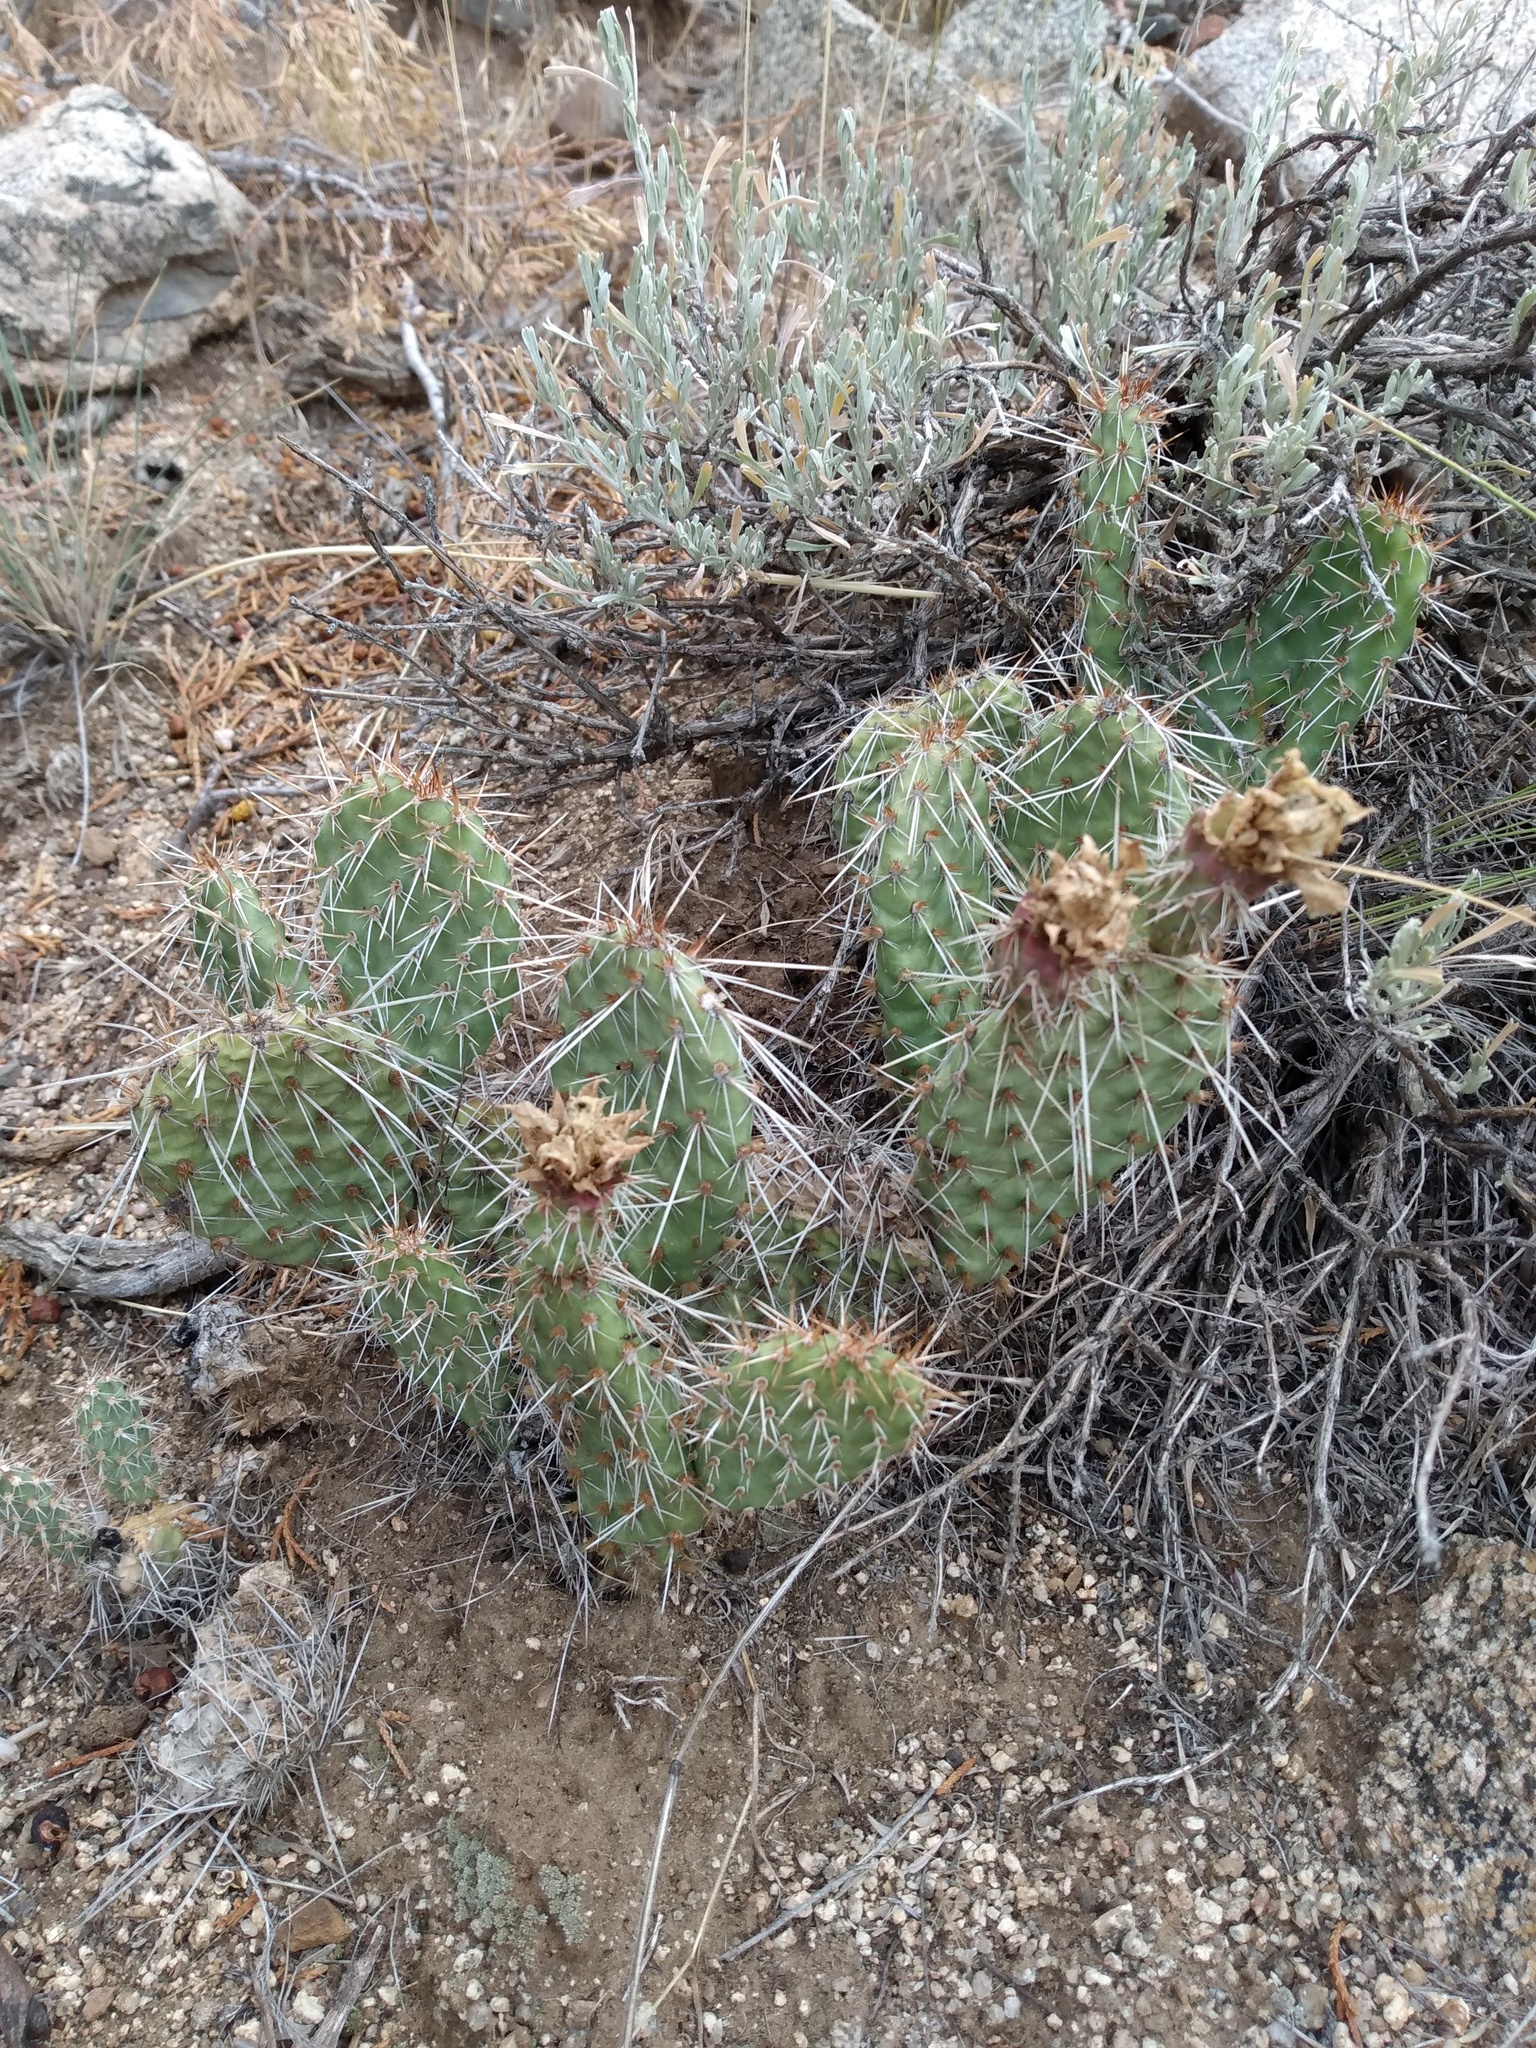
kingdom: Plantae
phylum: Tracheophyta
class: Magnoliopsida
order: Caryophyllales
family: Cactaceae
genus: Opuntia
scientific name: Opuntia polyacantha
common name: Plains prickly-pear
